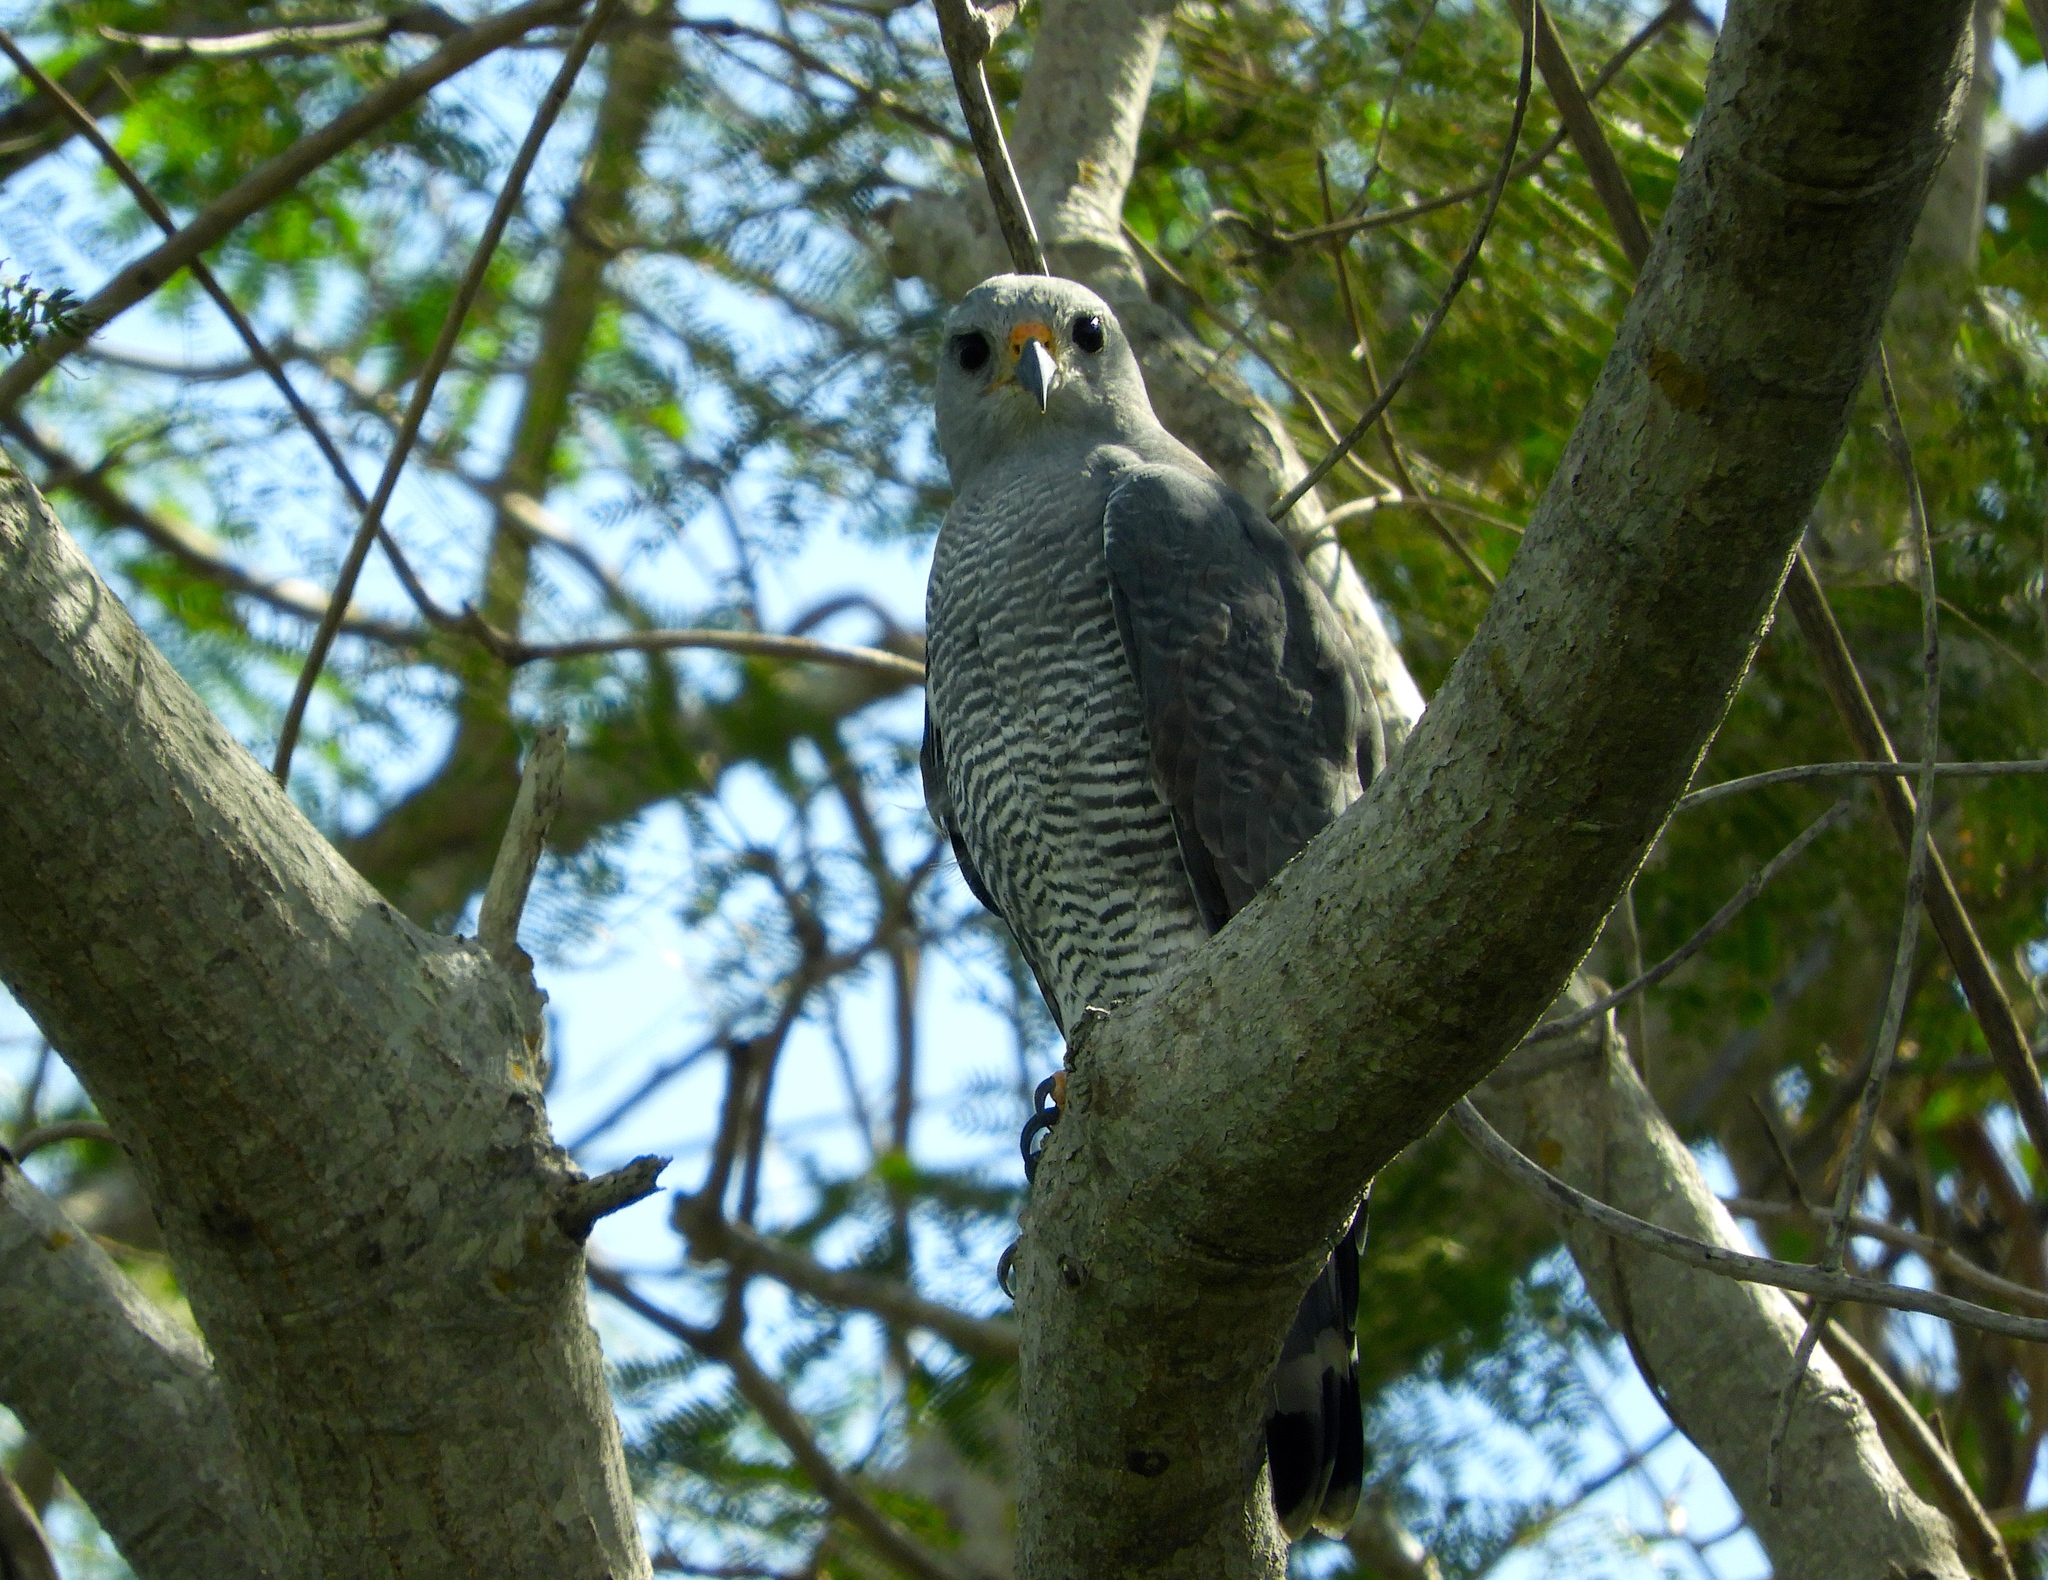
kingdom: Animalia
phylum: Chordata
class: Aves
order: Accipitriformes
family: Accipitridae
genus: Buteo
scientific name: Buteo nitidus
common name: Grey-lined hawk
